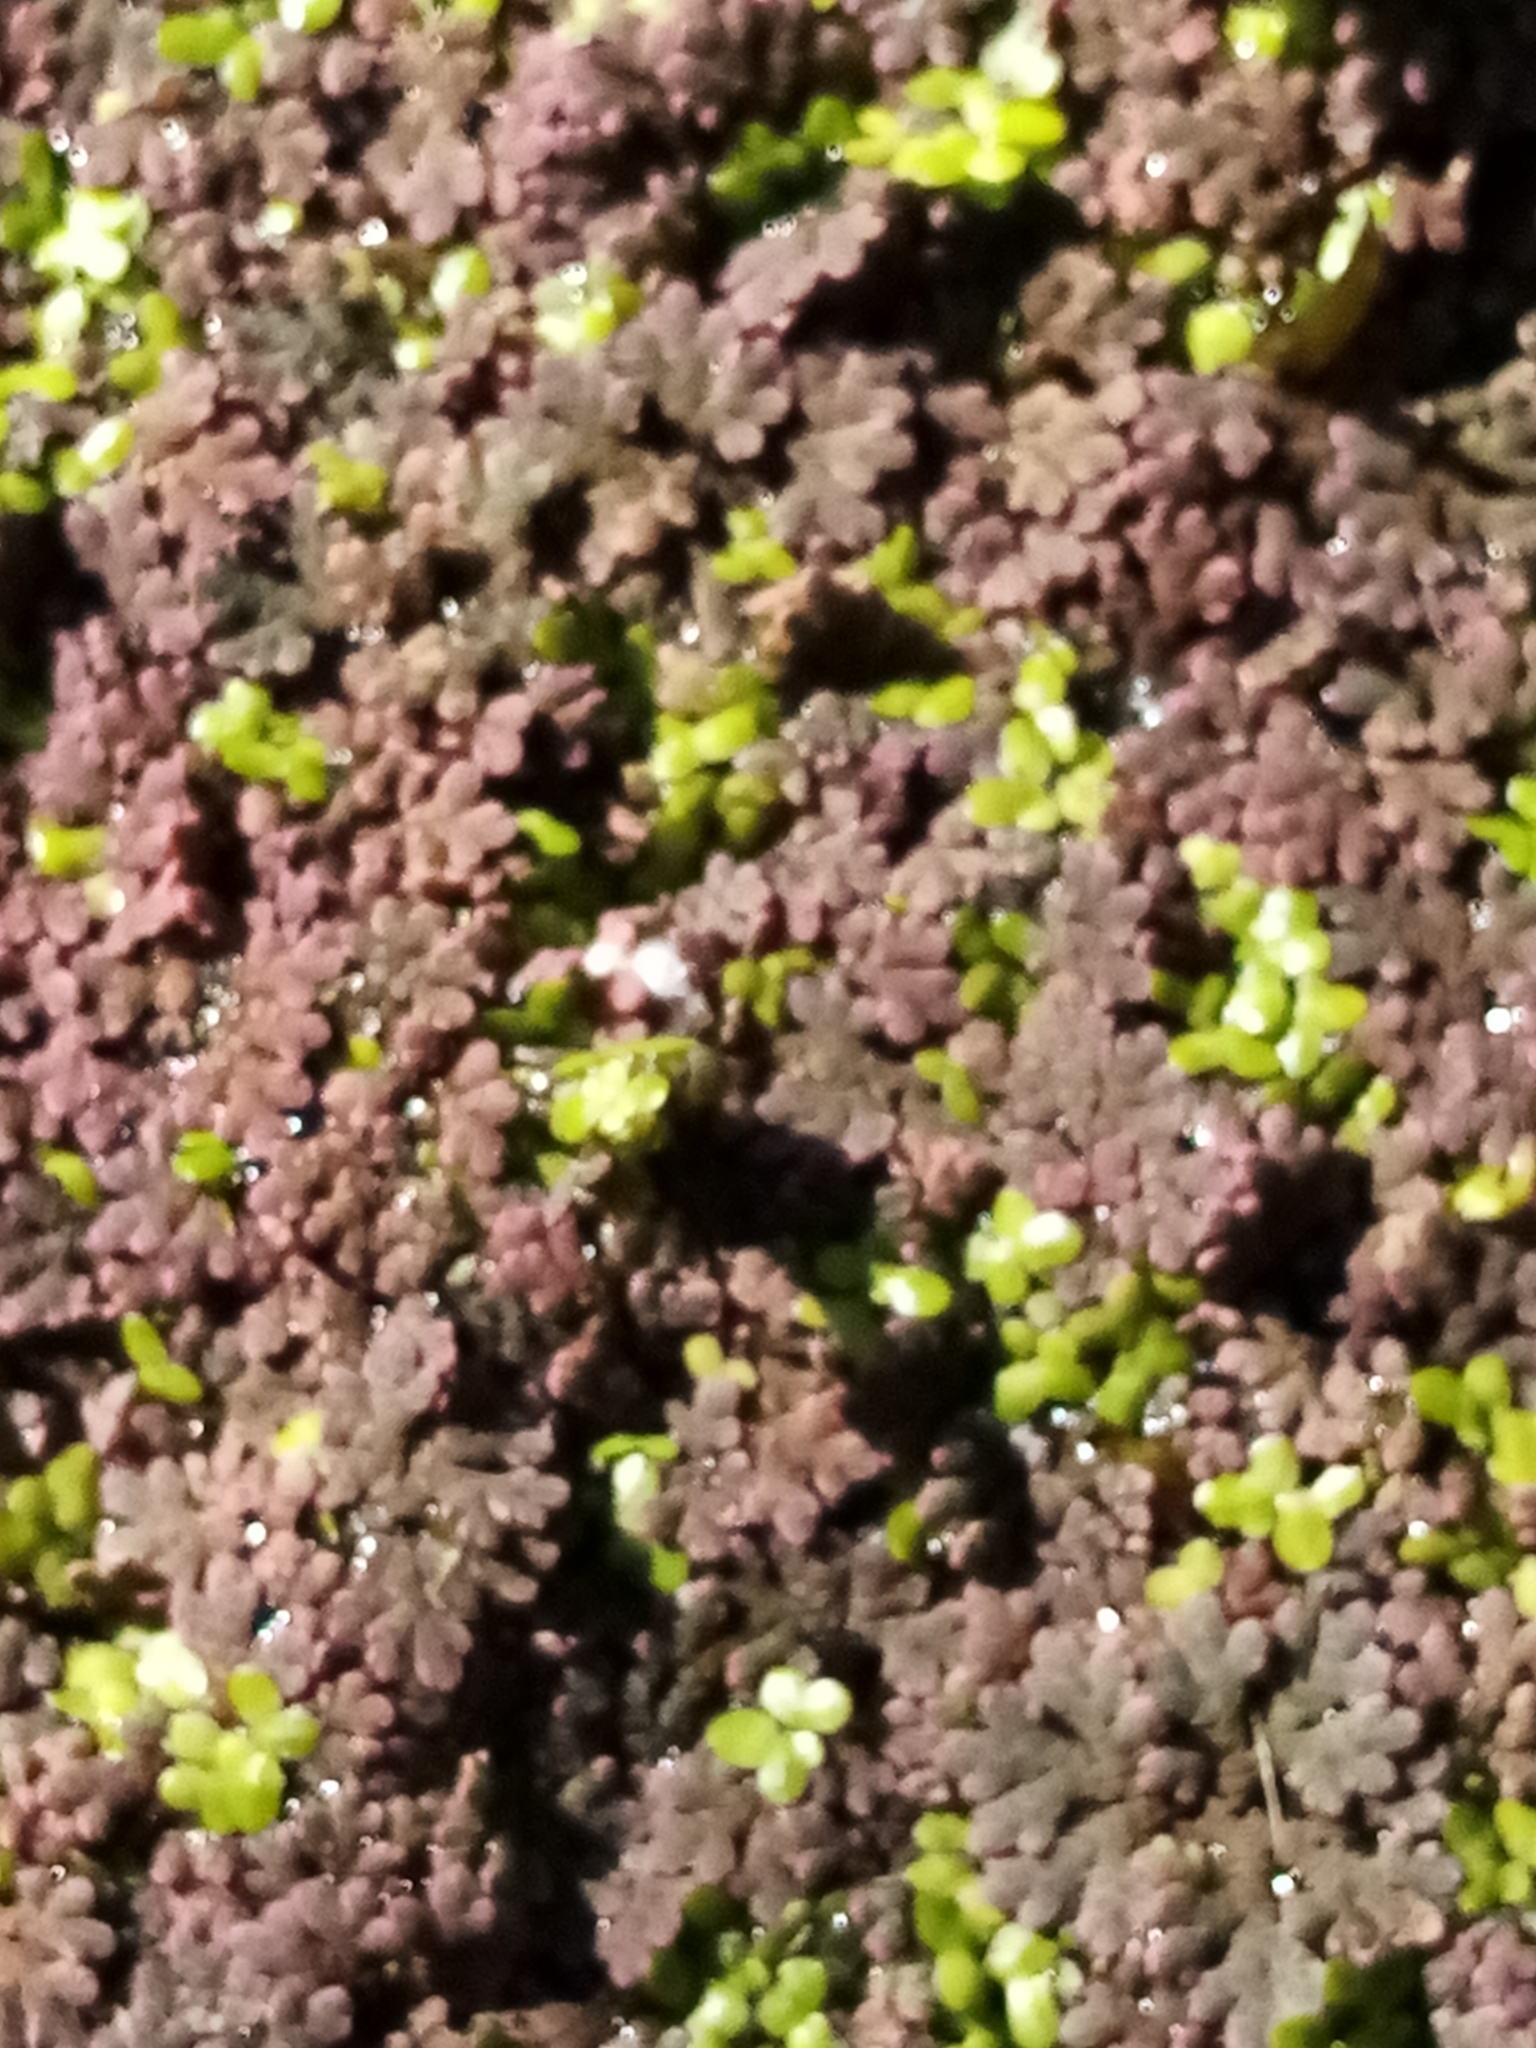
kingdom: Plantae
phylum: Tracheophyta
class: Polypodiopsida
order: Salviniales
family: Salviniaceae
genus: Azolla
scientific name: Azolla rubra
